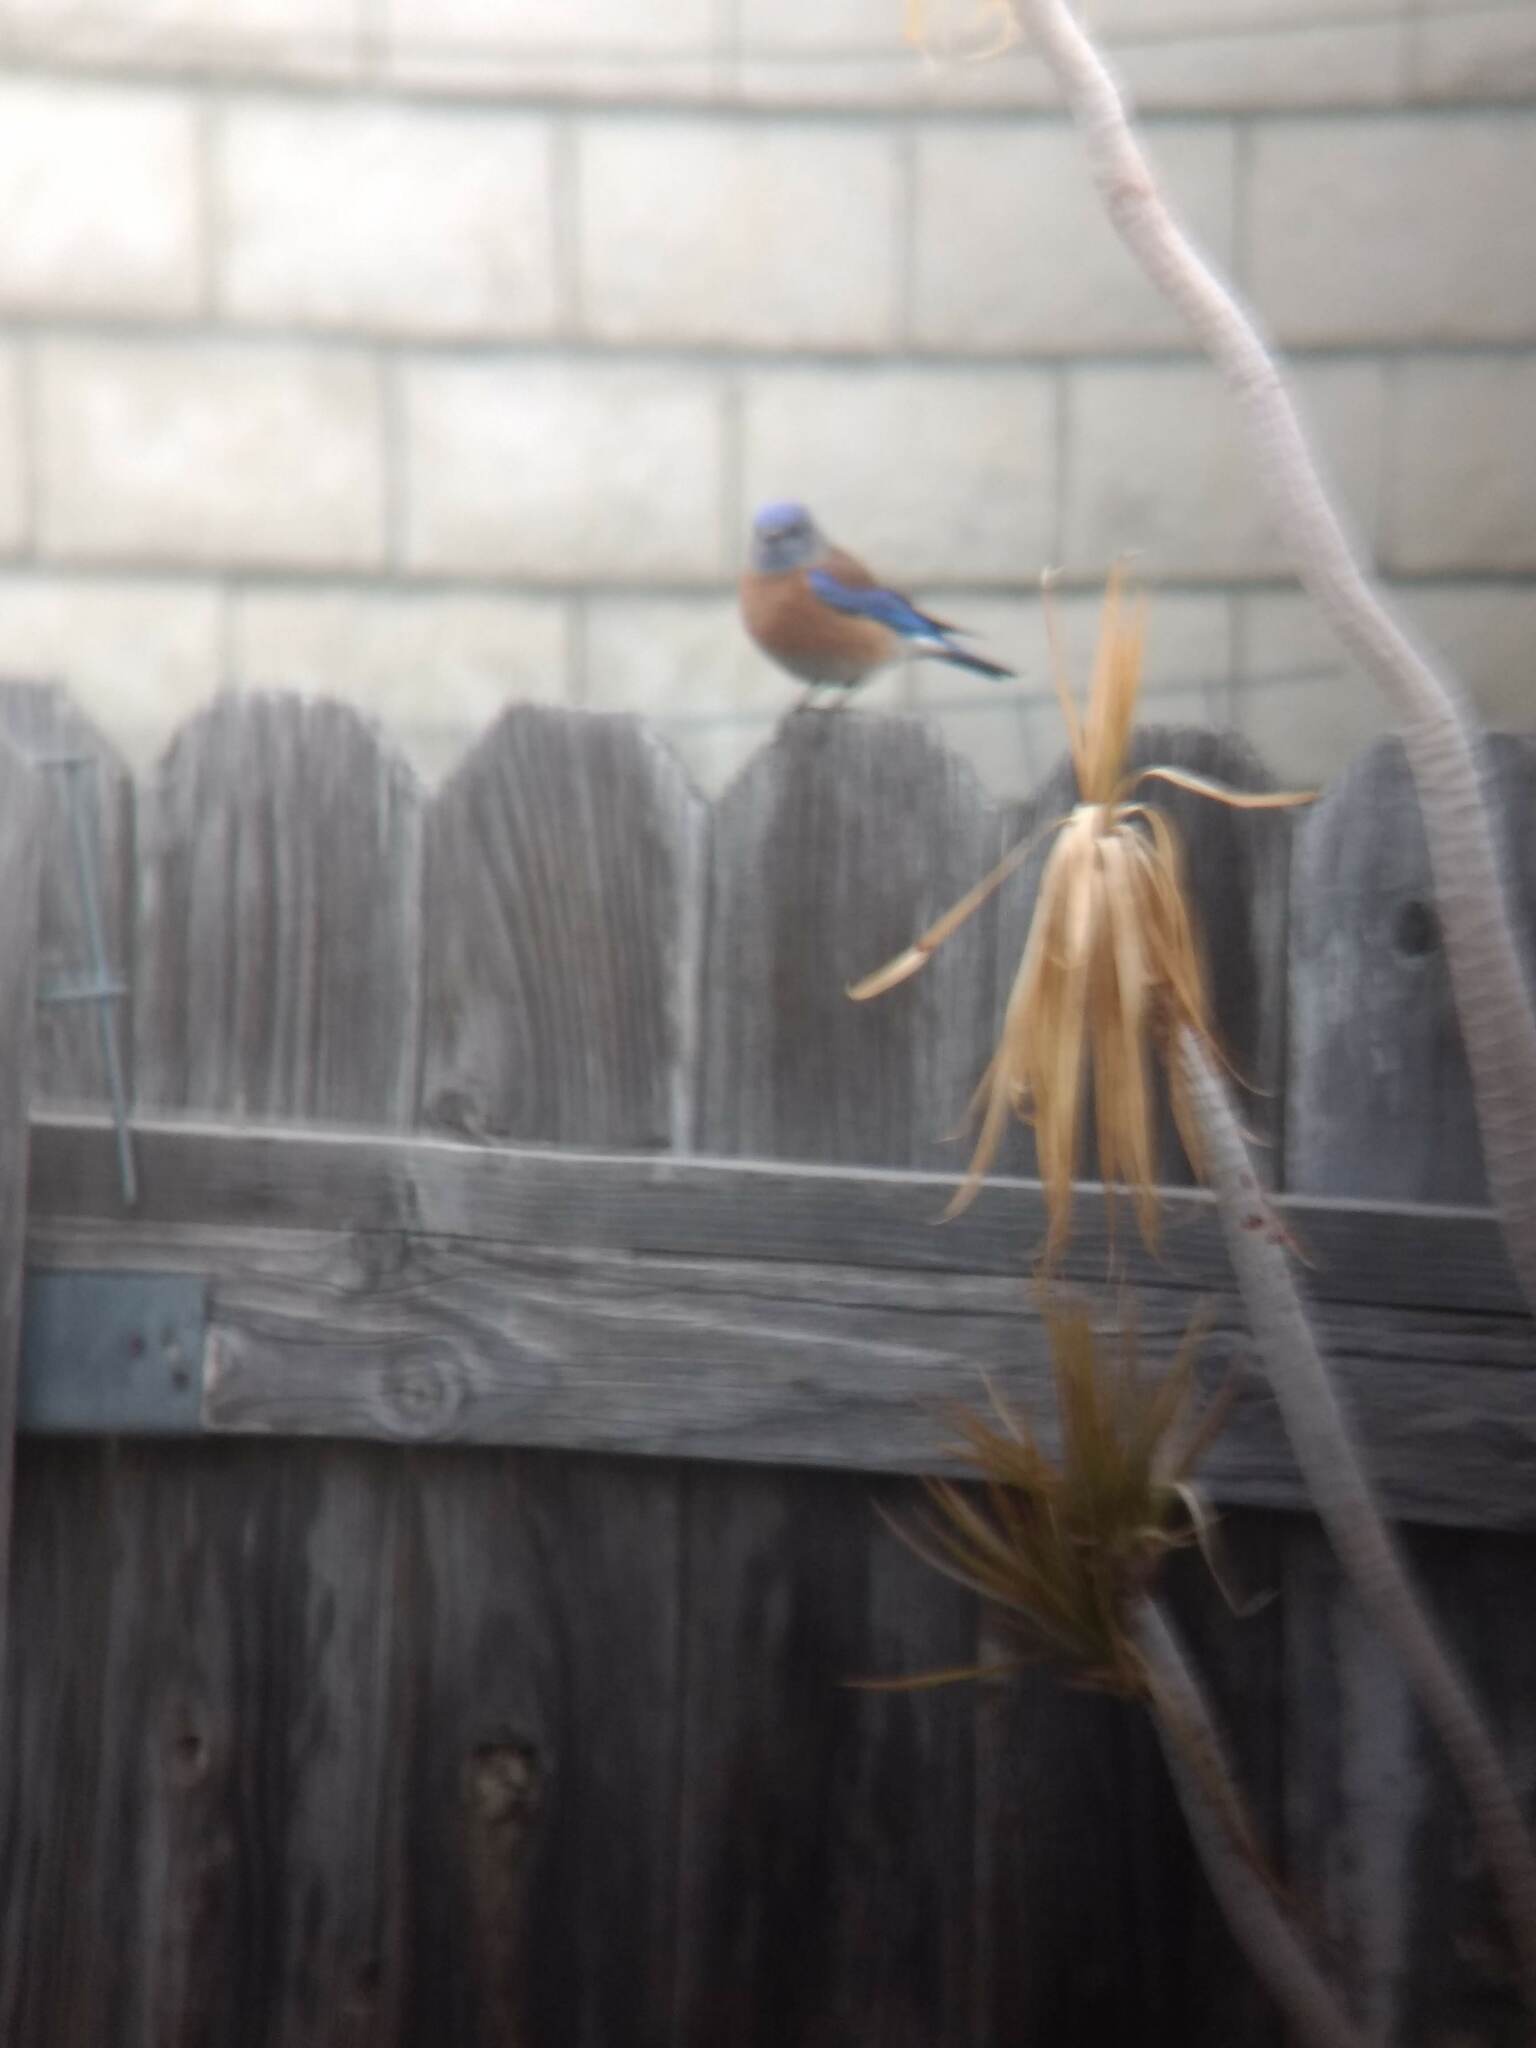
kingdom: Animalia
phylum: Chordata
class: Aves
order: Passeriformes
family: Turdidae
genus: Sialia
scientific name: Sialia mexicana
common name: Western bluebird
